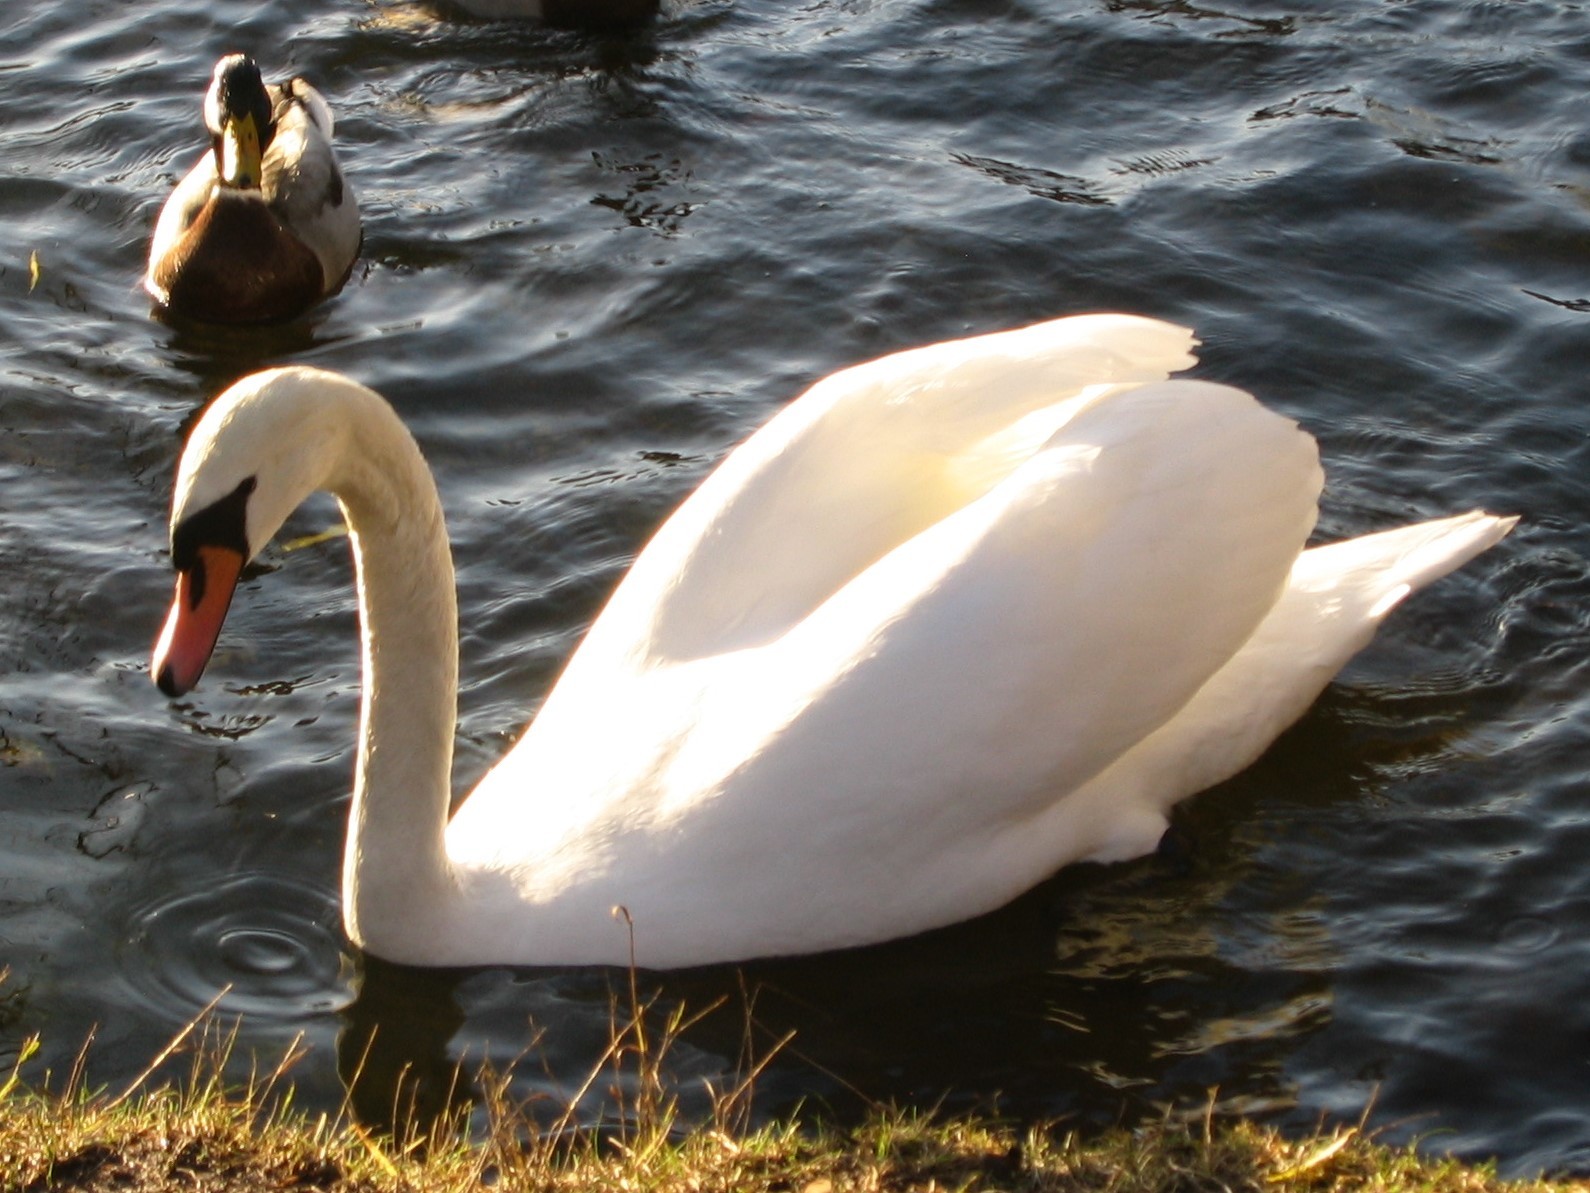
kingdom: Animalia
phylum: Chordata
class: Aves
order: Anseriformes
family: Anatidae
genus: Cygnus
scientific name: Cygnus olor
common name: Mute swan
